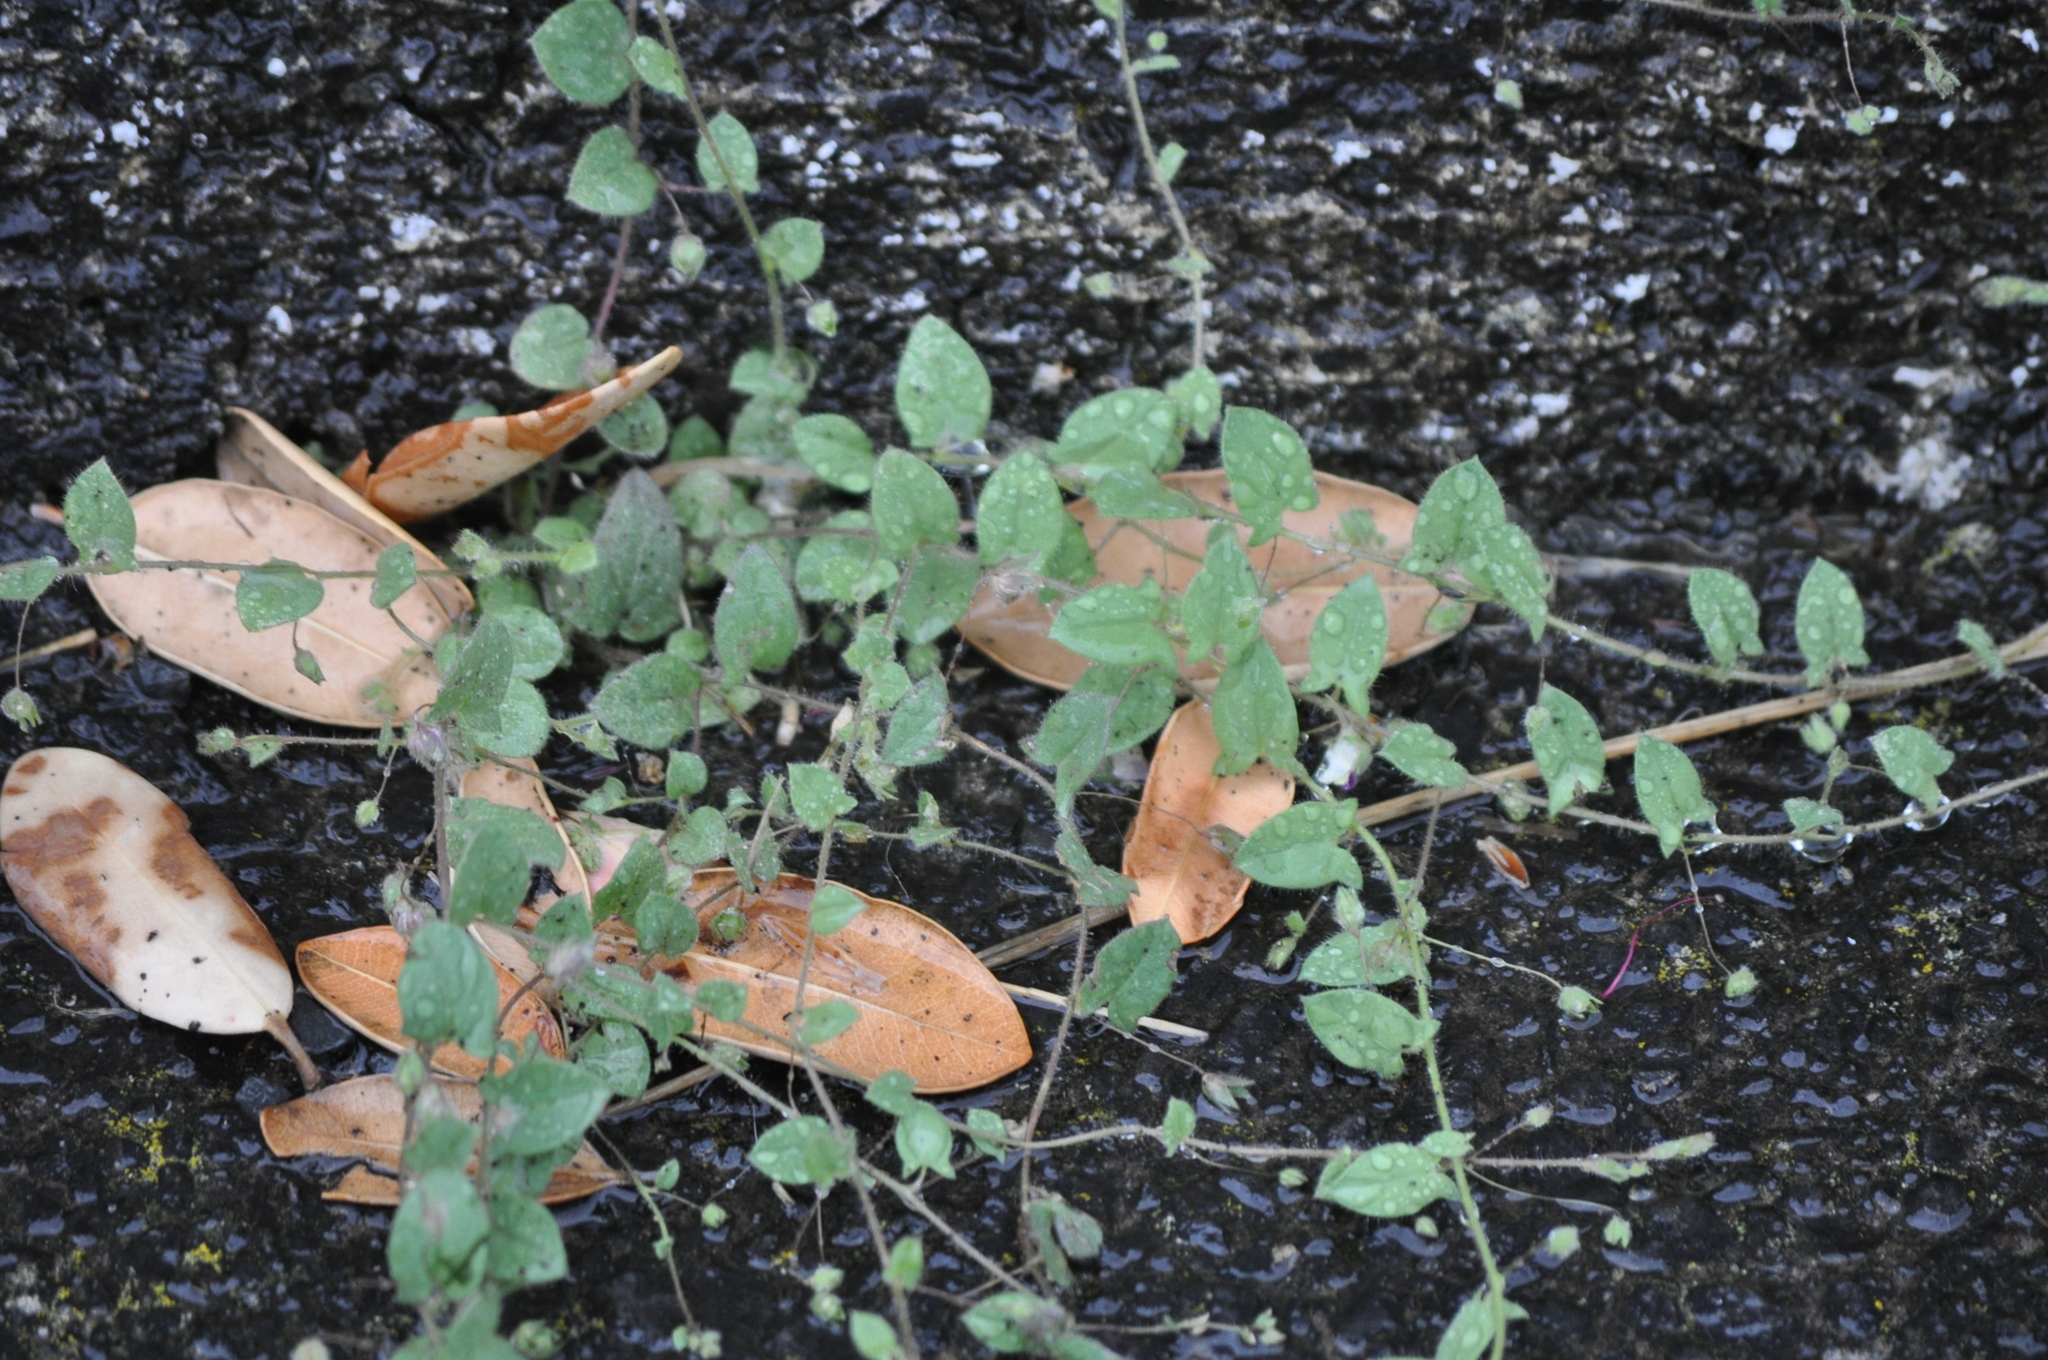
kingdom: Plantae
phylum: Tracheophyta
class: Magnoliopsida
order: Lamiales
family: Plantaginaceae
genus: Kickxia
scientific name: Kickxia elatine
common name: Sharp-leaved fluellen
